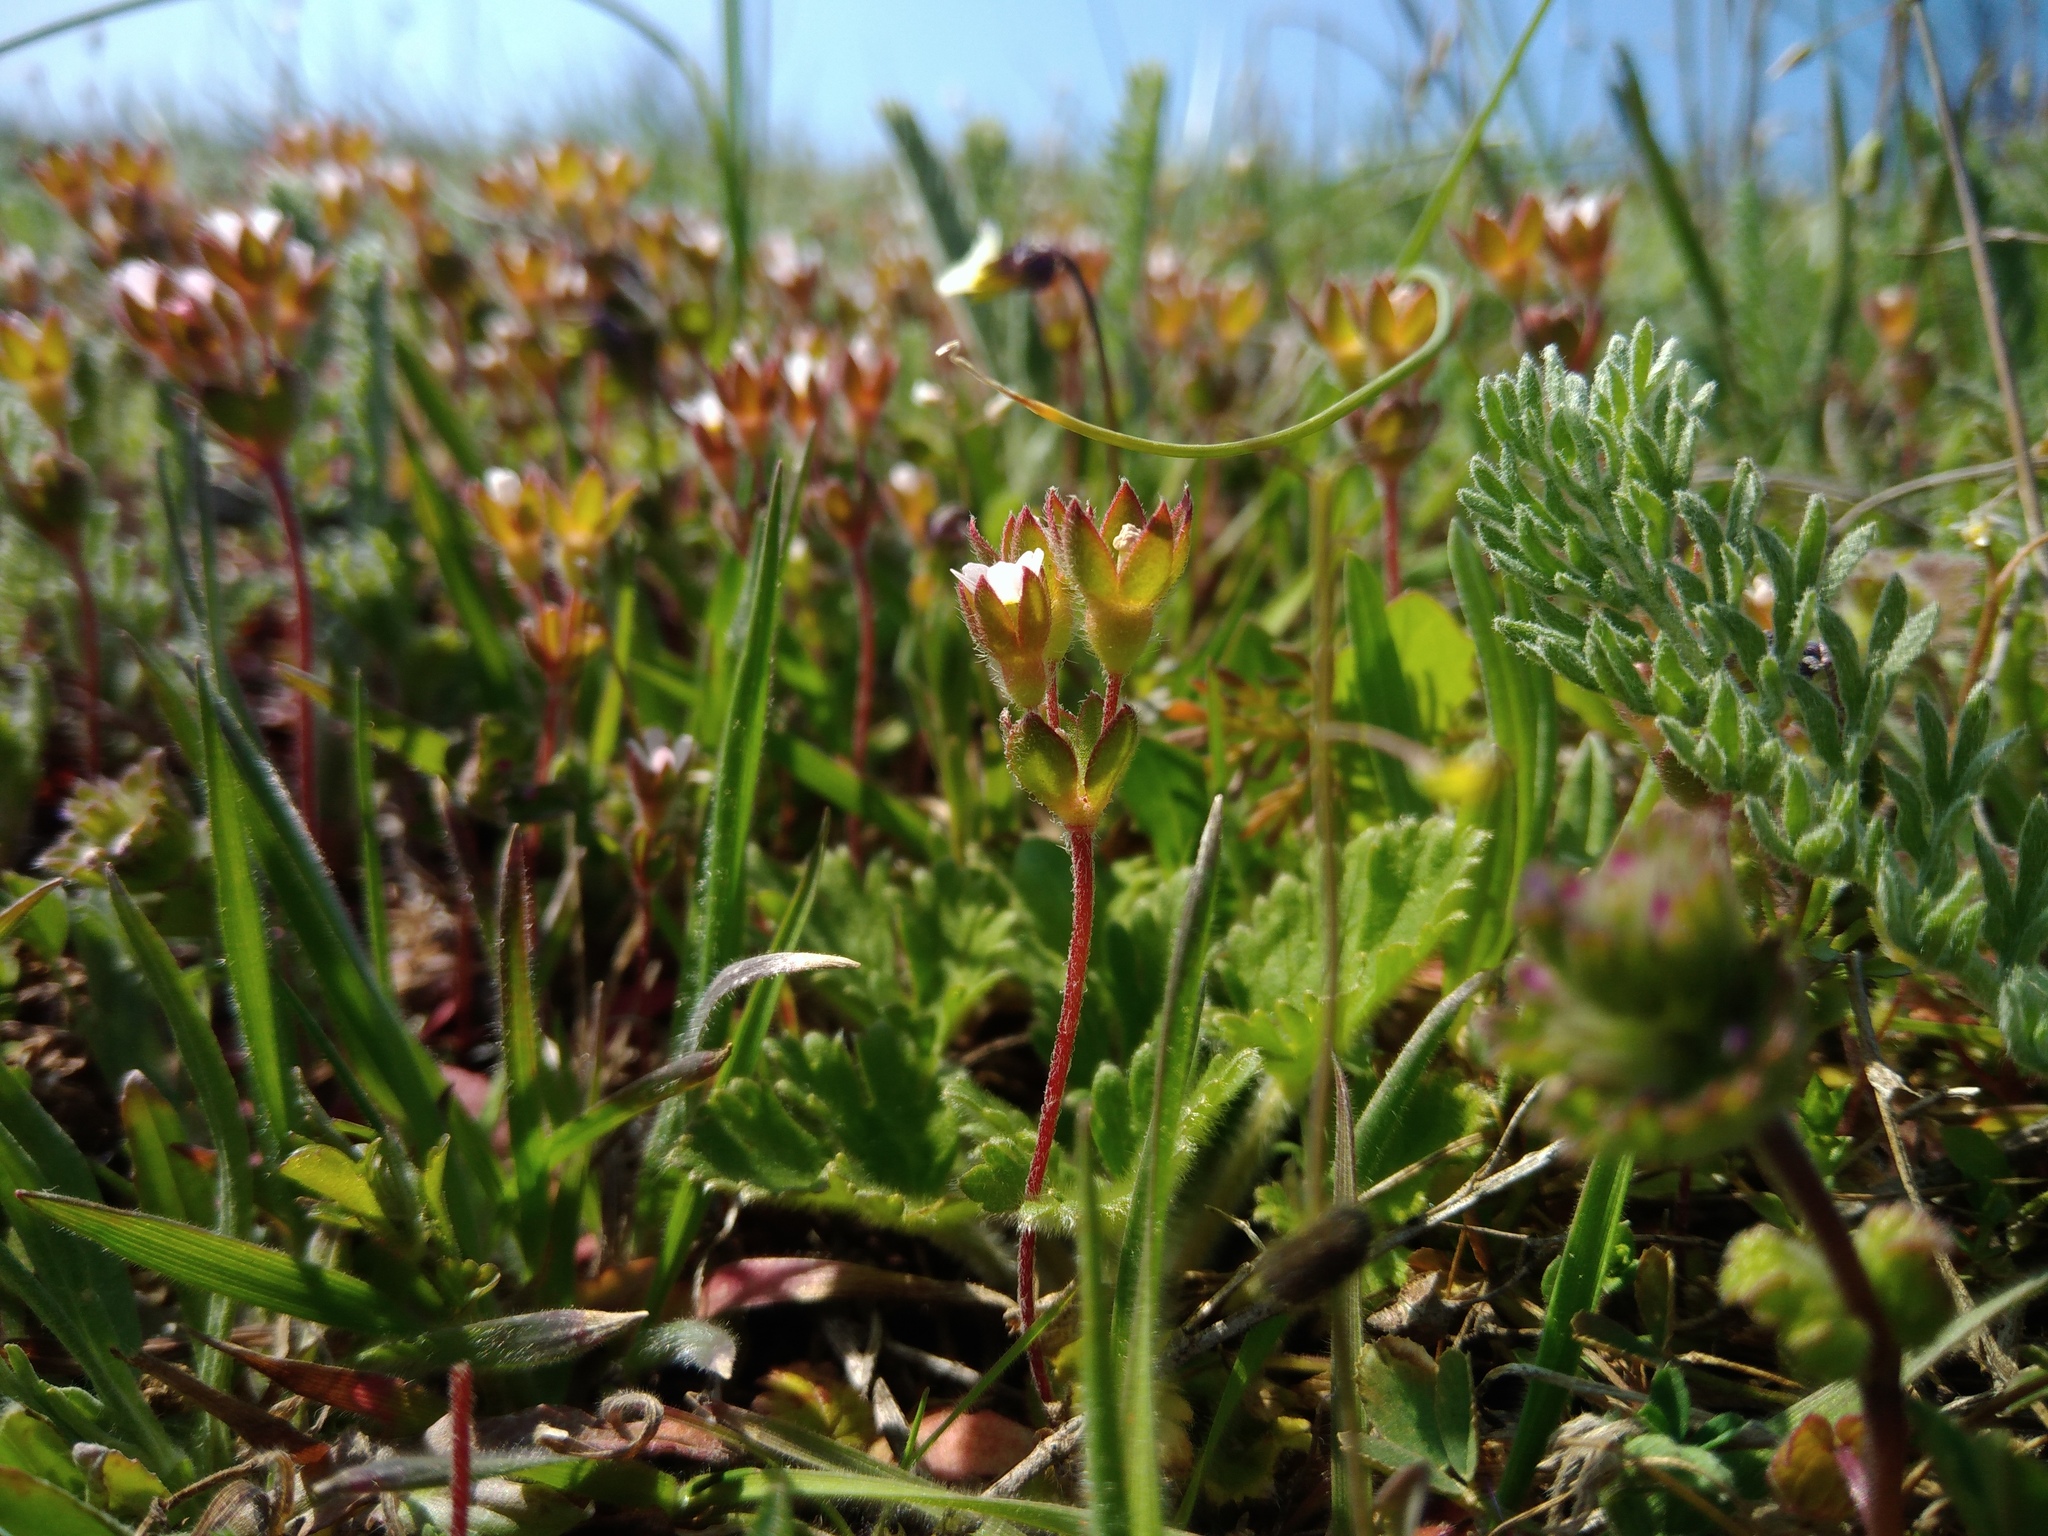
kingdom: Plantae
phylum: Tracheophyta
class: Magnoliopsida
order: Ericales
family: Primulaceae
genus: Androsace
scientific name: Androsace maxima
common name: Annual androsace
